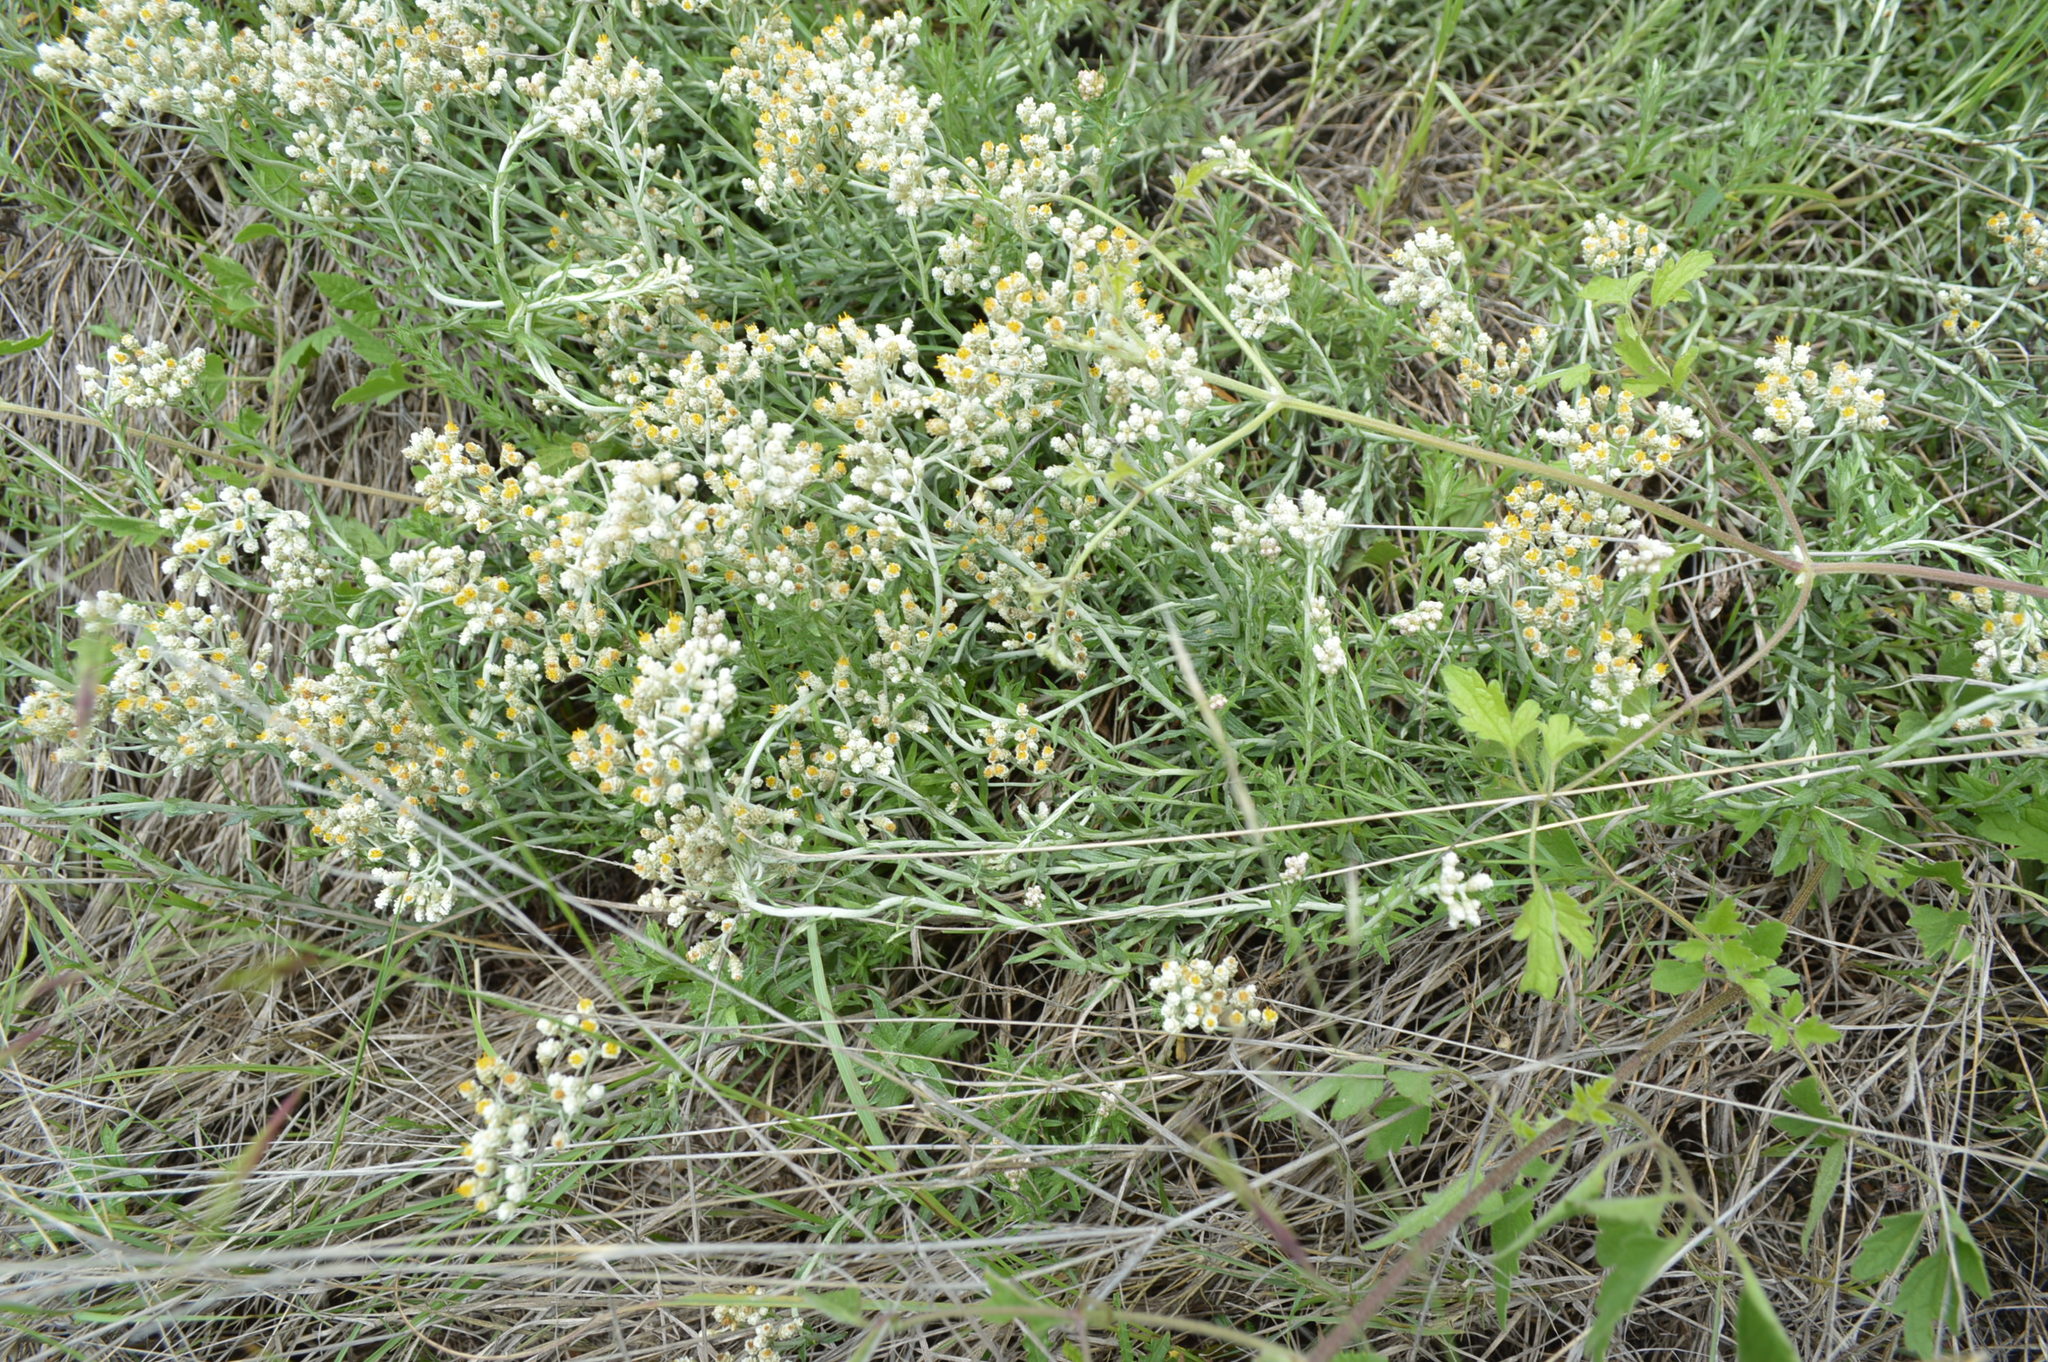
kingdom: Plantae
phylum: Tracheophyta
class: Magnoliopsida
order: Asterales
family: Asteraceae
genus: Helichrysum
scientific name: Helichrysum rugulosum
